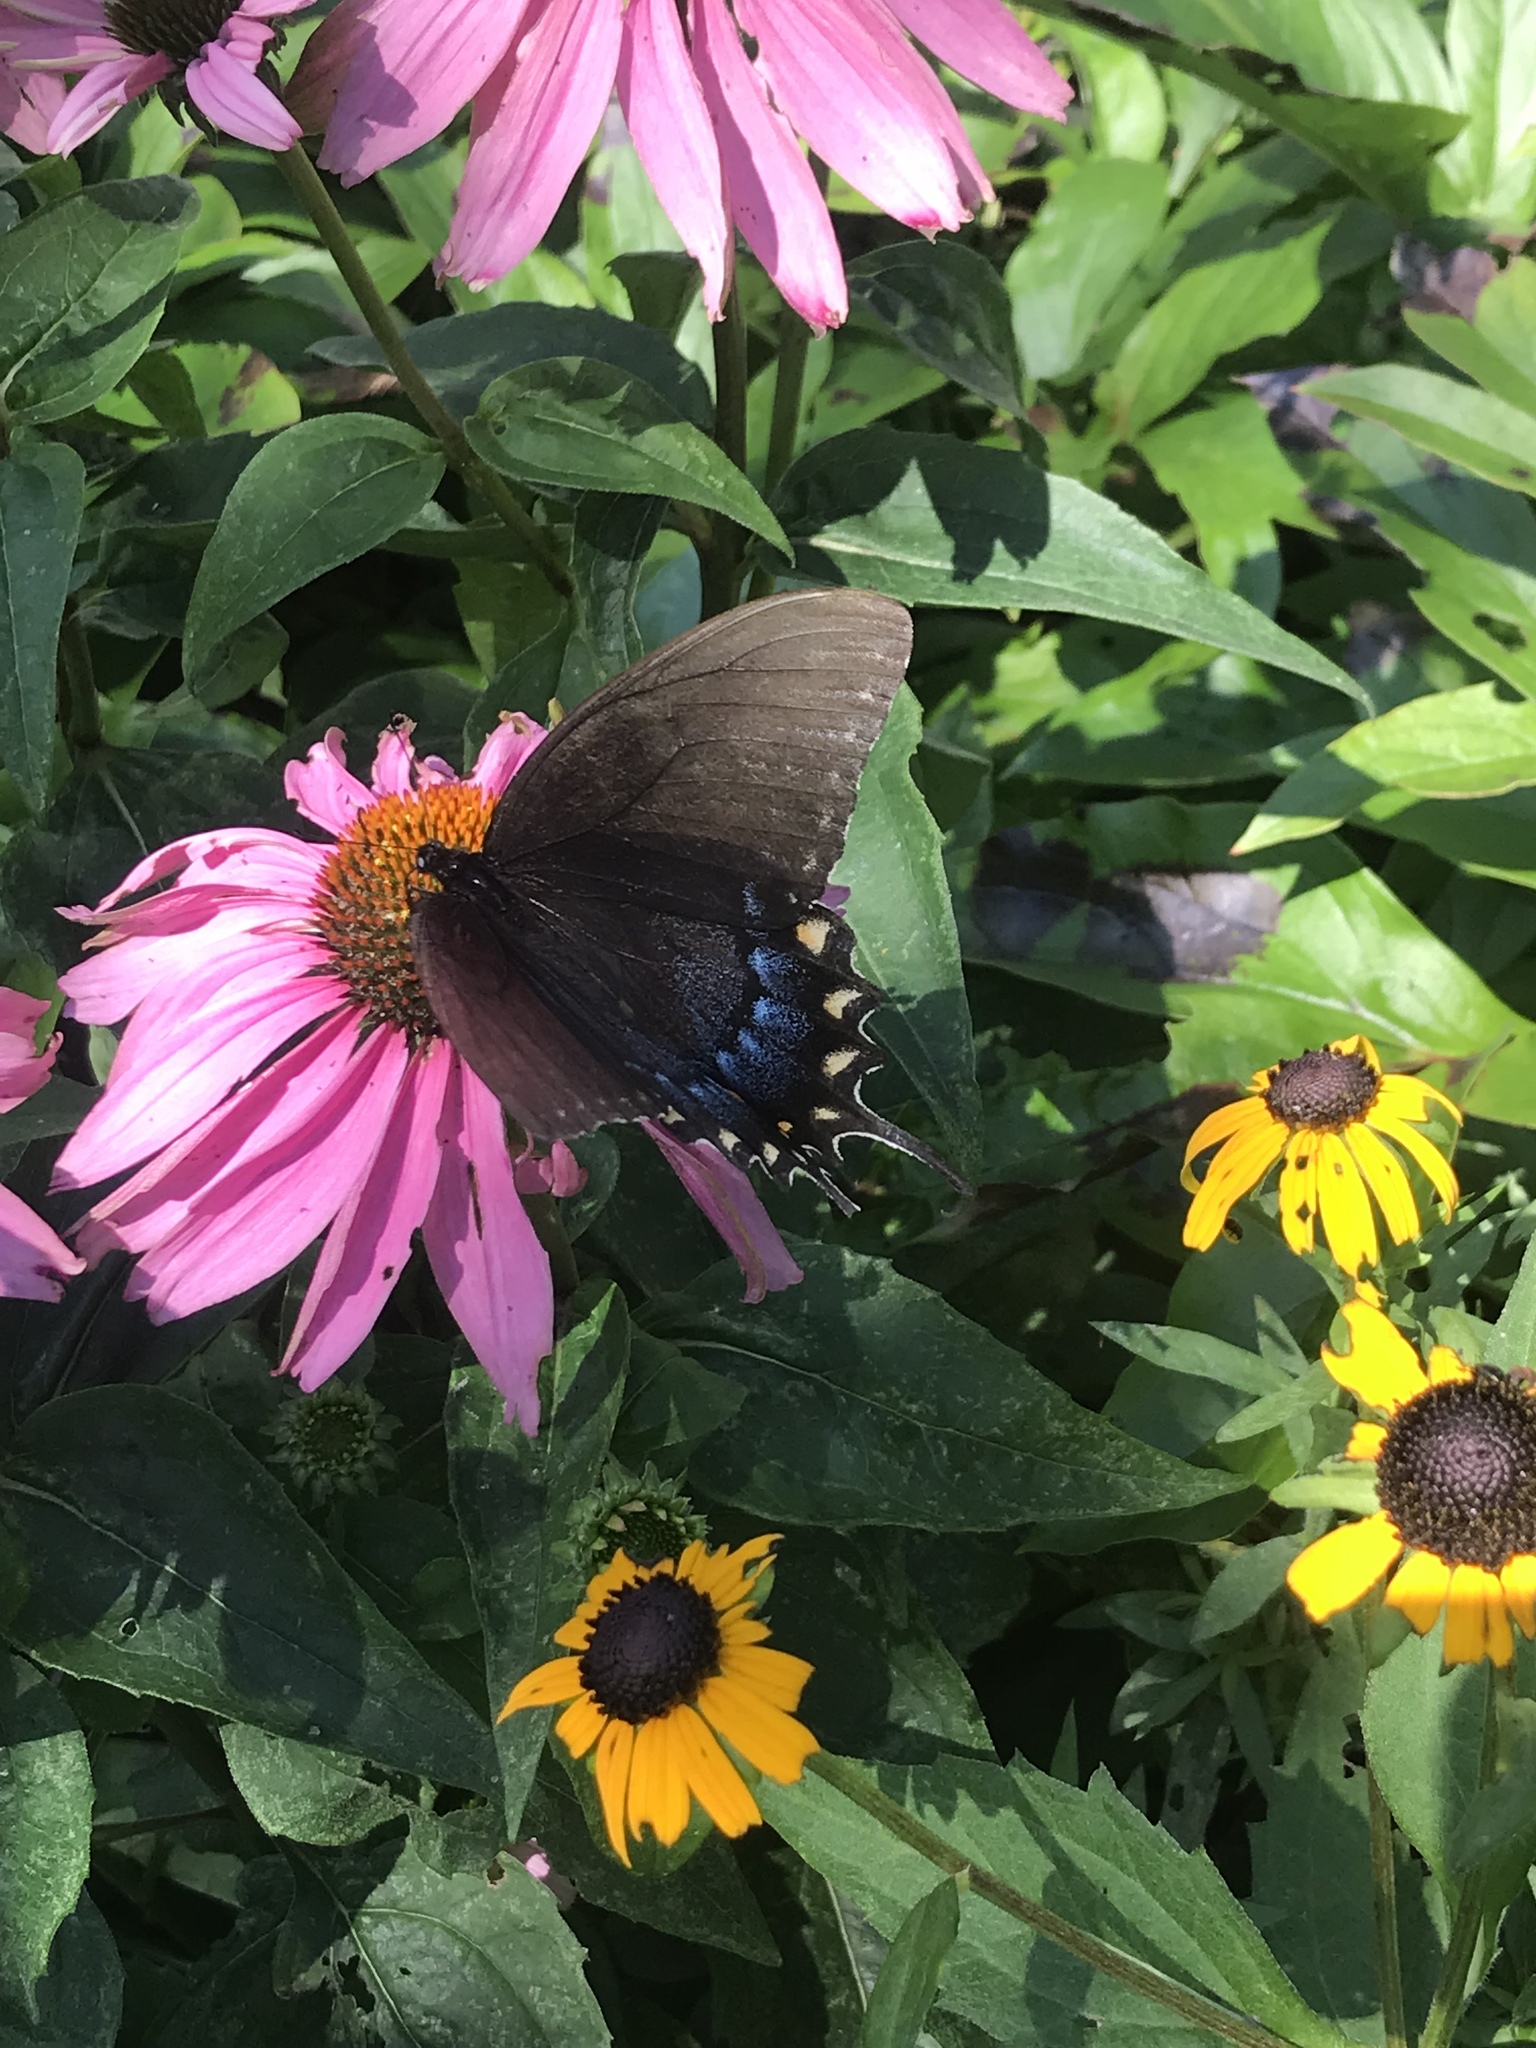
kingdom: Animalia
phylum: Arthropoda
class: Insecta
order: Lepidoptera
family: Papilionidae
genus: Papilio
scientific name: Papilio glaucus
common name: Tiger swallowtail
